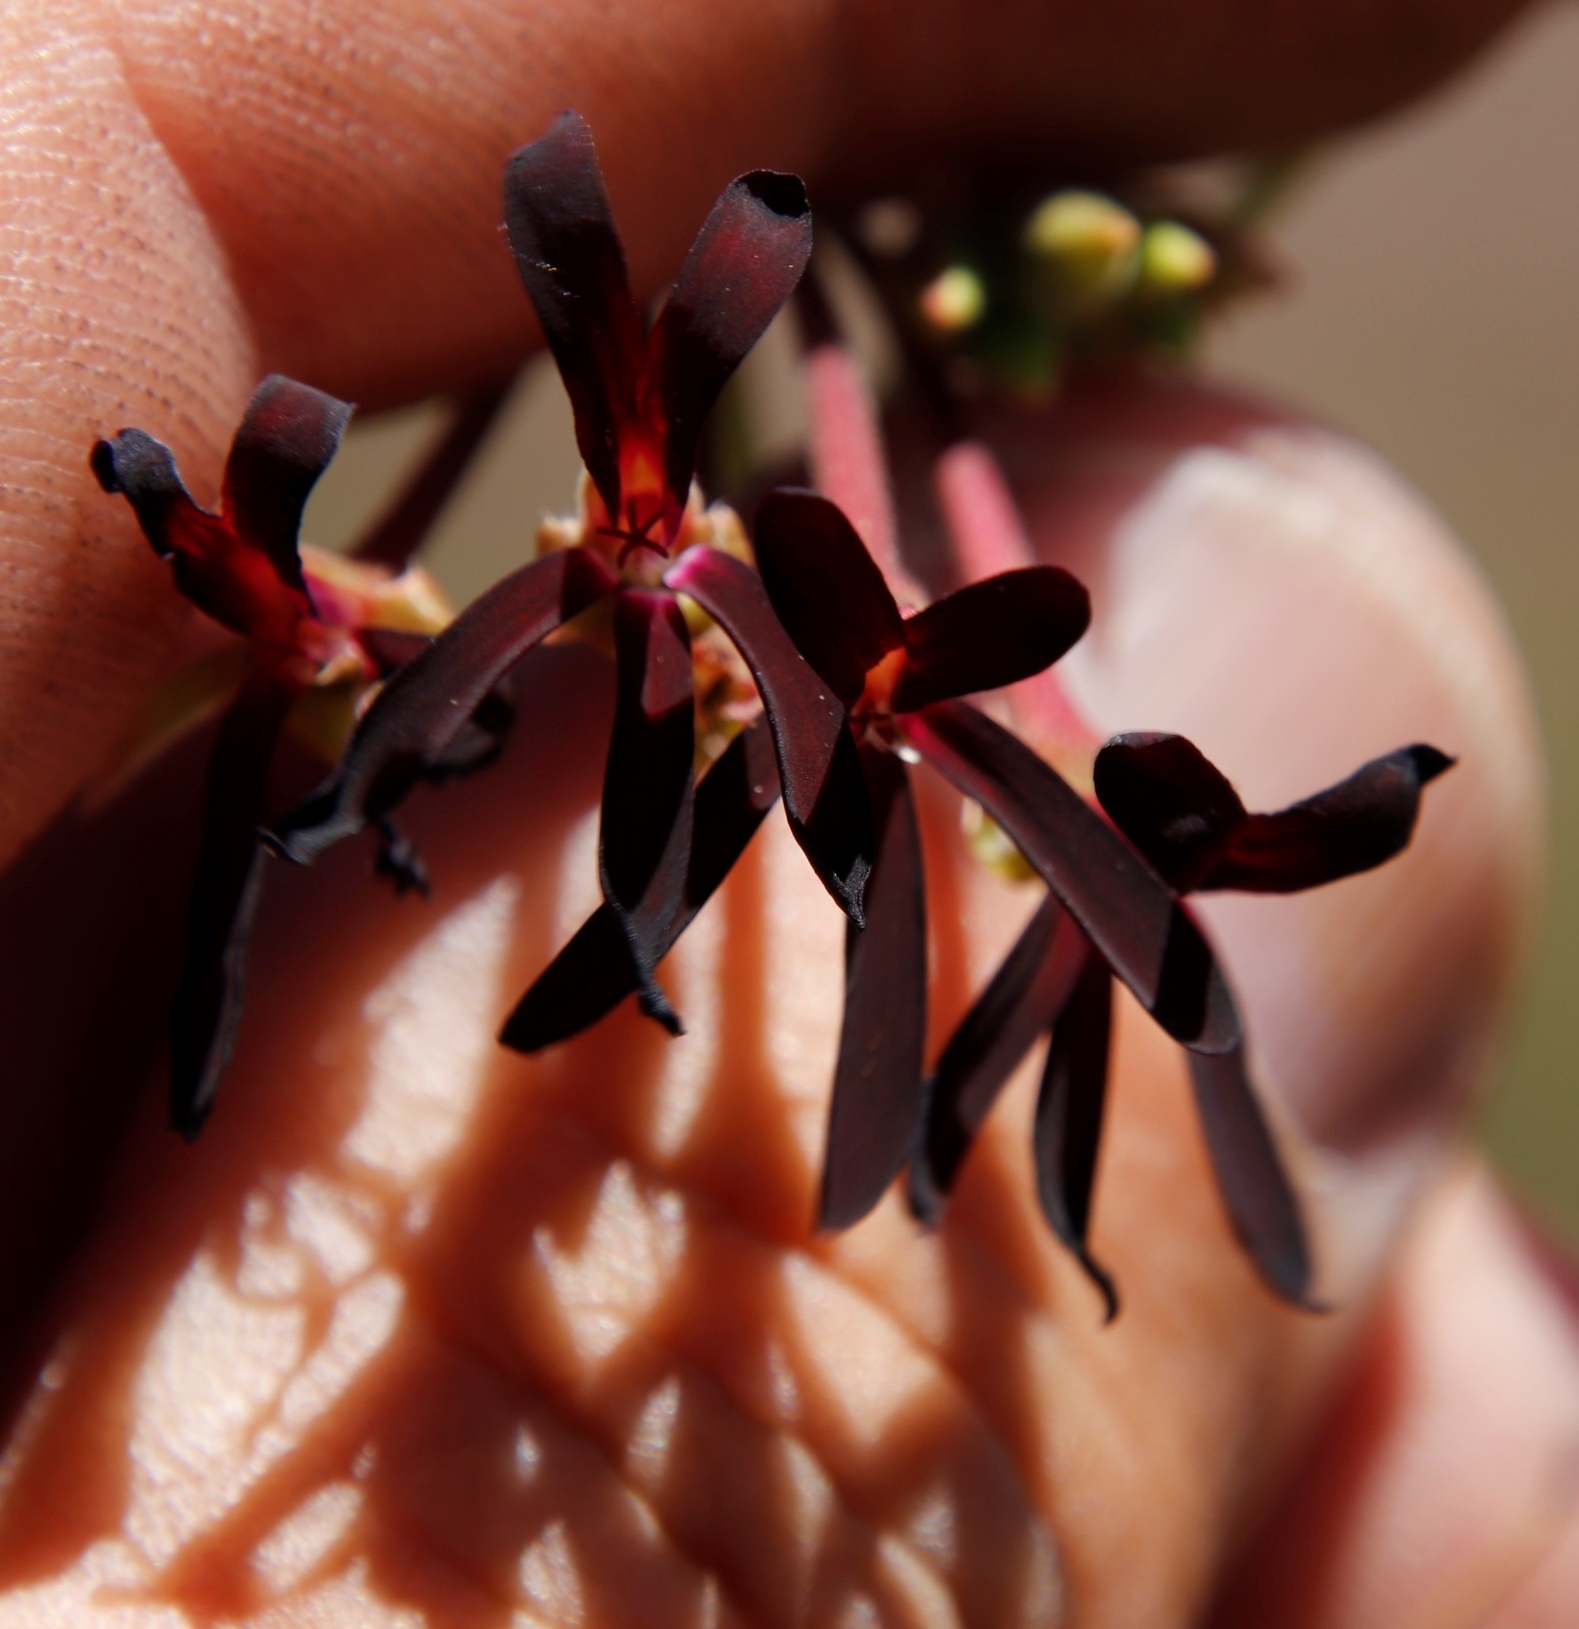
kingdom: Plantae
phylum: Tracheophyta
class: Magnoliopsida
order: Geraniales
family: Geraniaceae
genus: Pelargonium
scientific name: Pelargonium sidoides
